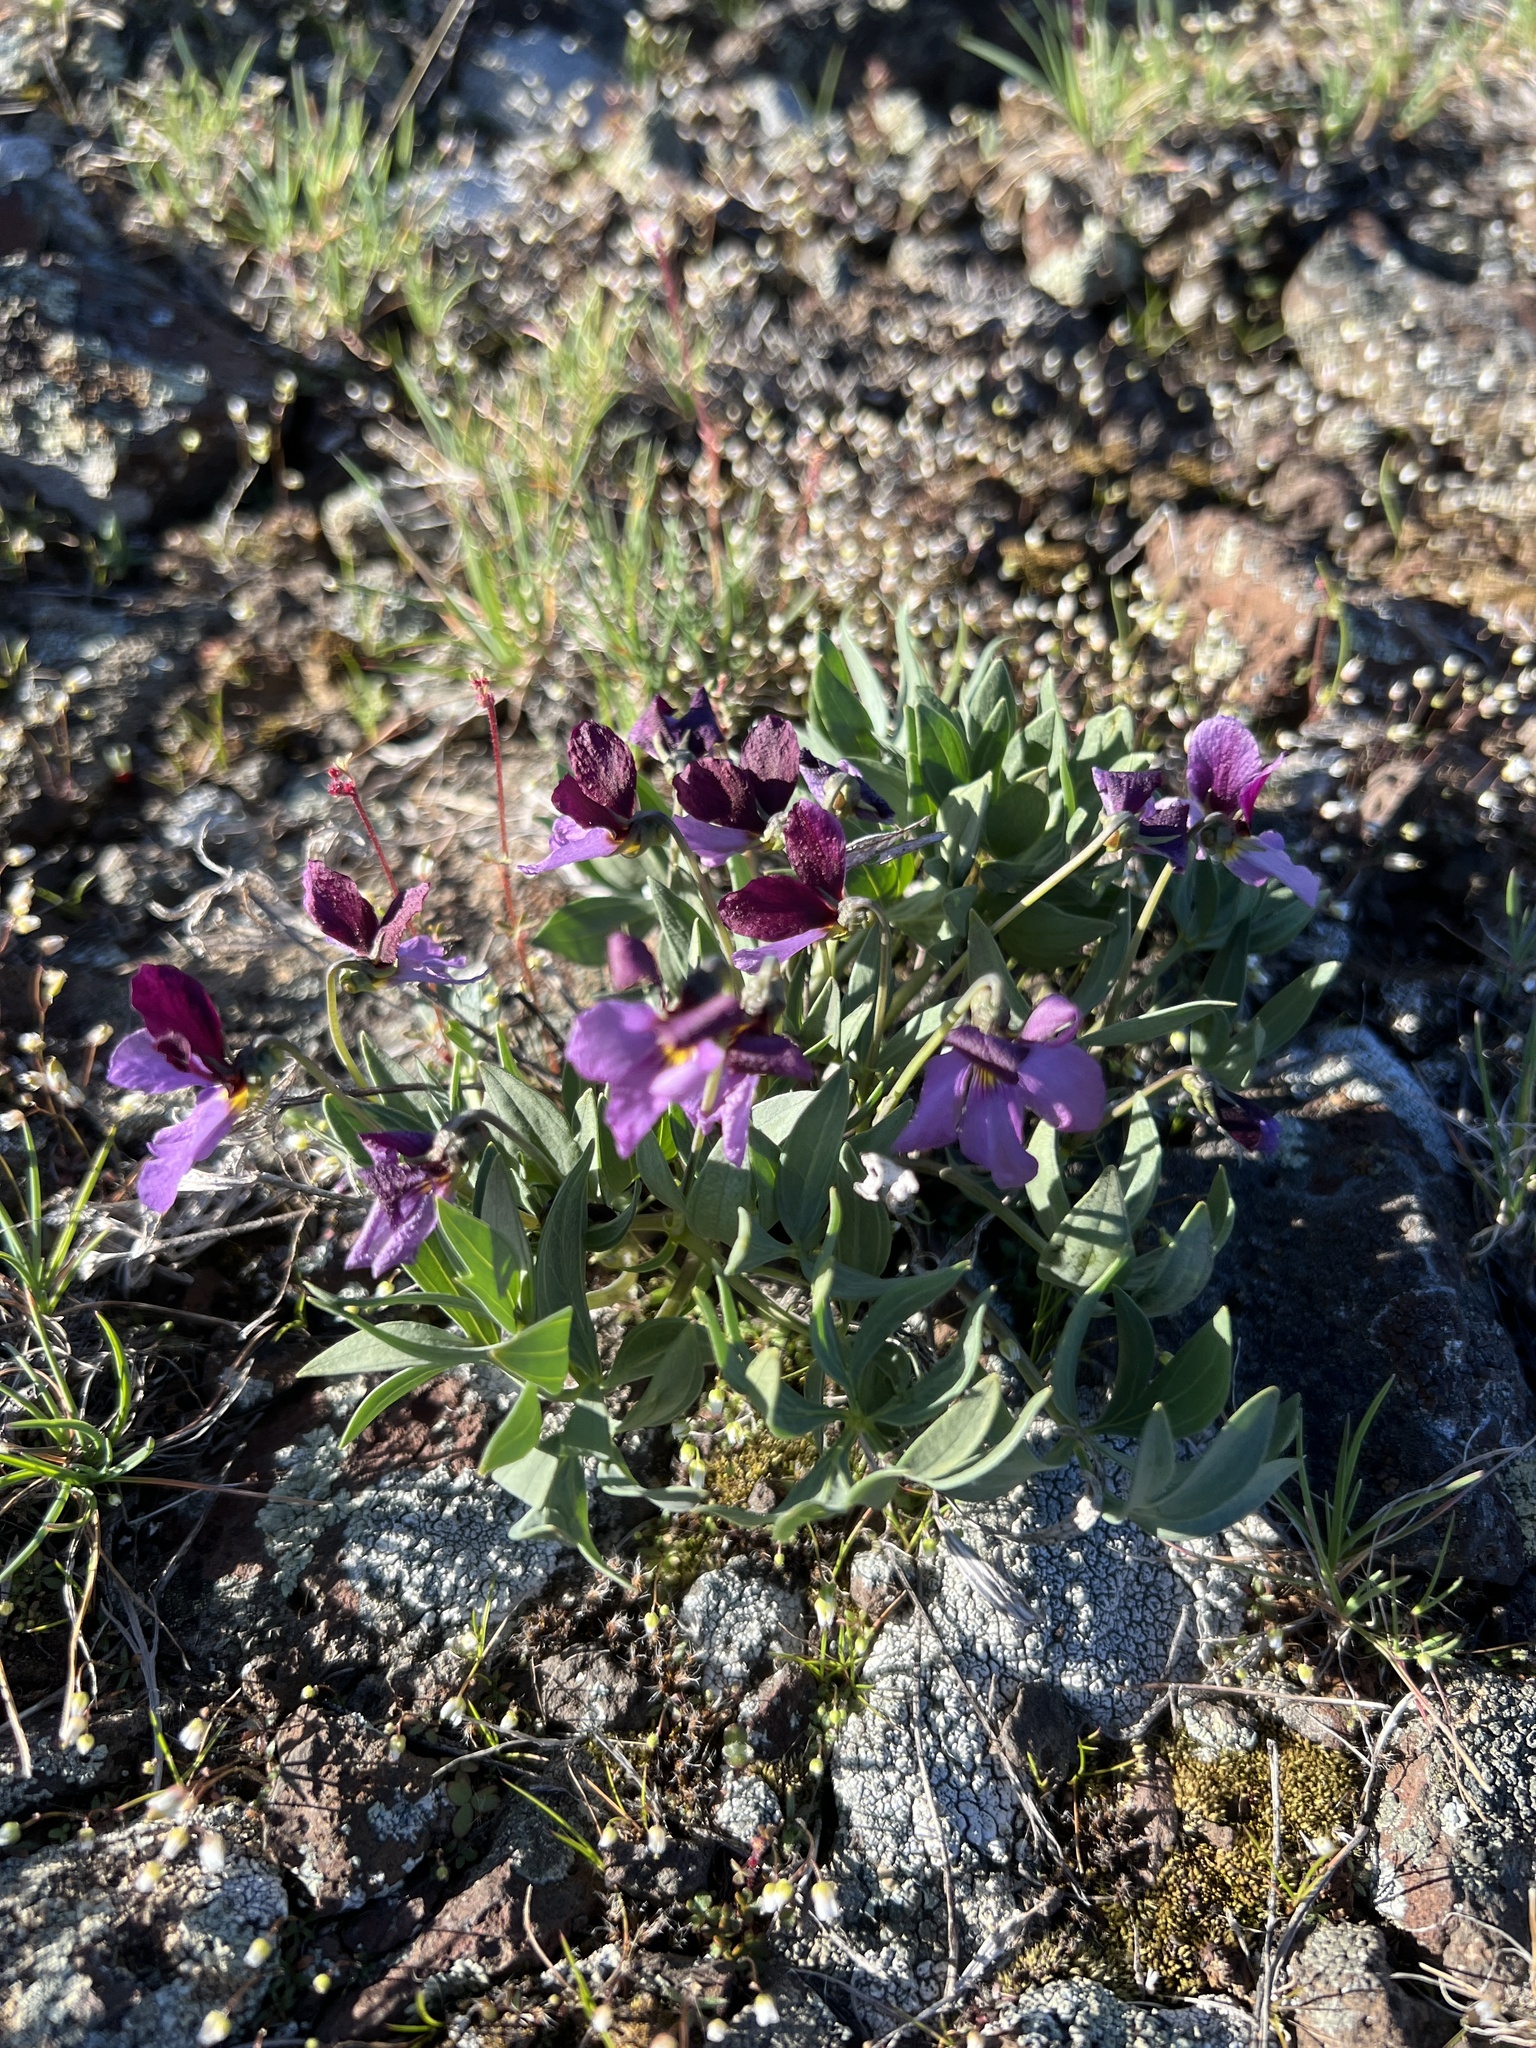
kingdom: Plantae
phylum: Tracheophyta
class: Magnoliopsida
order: Malpighiales
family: Violaceae
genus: Viola
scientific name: Viola trinervata
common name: Sagebrush violet
